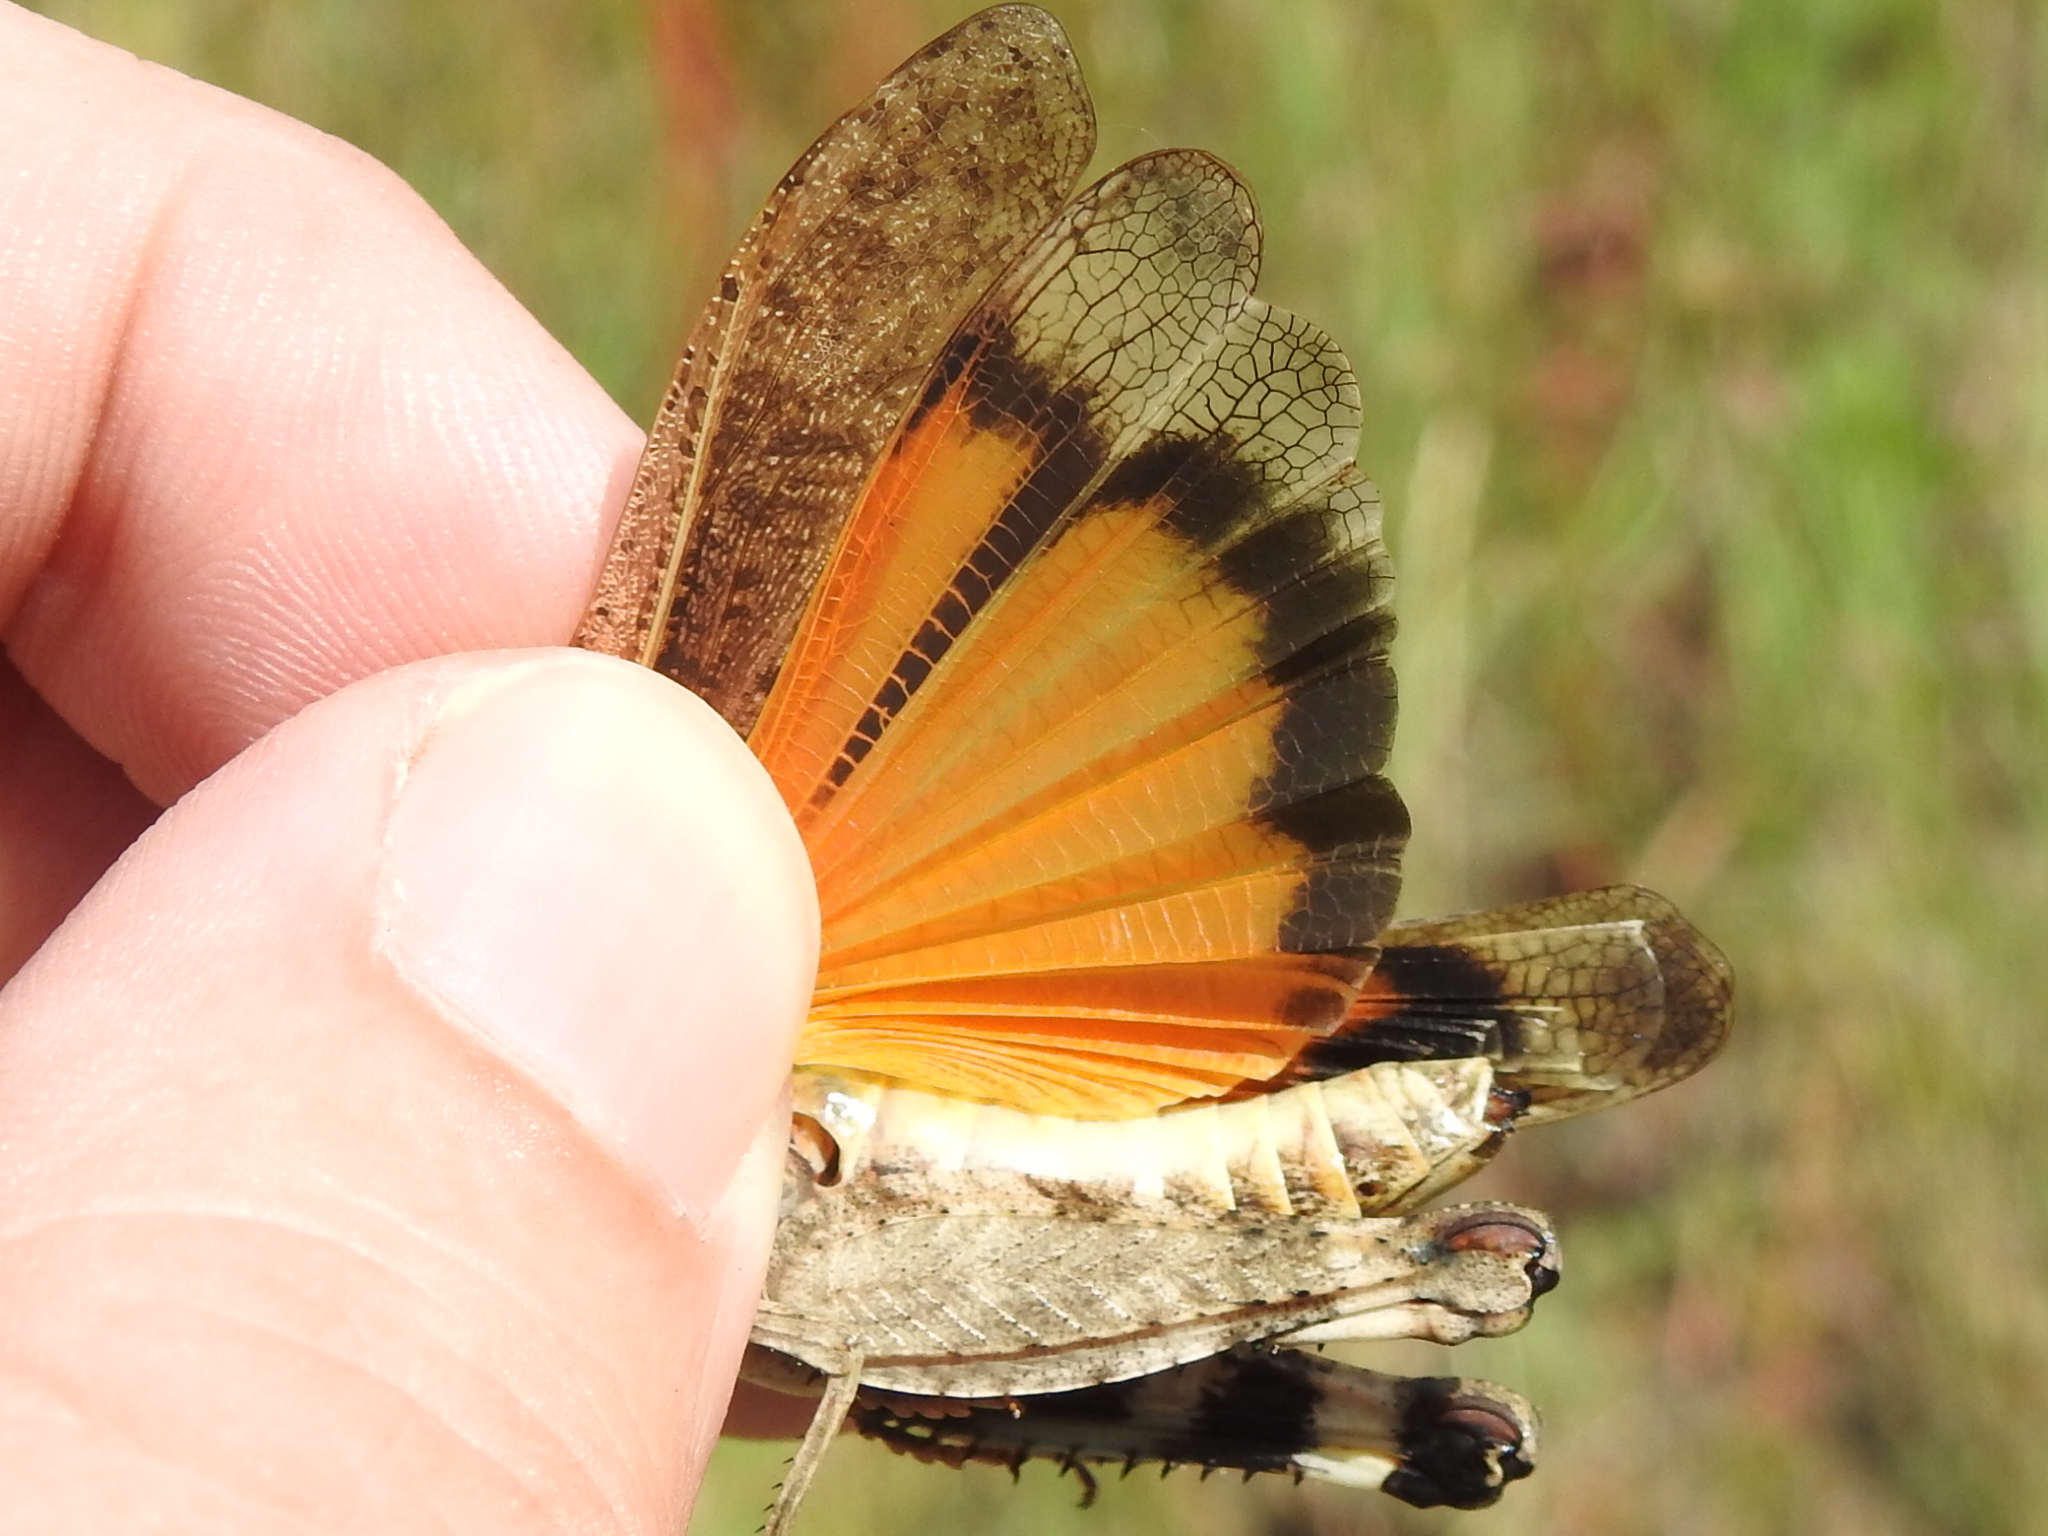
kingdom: Animalia
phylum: Arthropoda
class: Insecta
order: Orthoptera
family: Acrididae
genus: Arphia
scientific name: Arphia simplex
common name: Plains yellow-winged grasshopper
